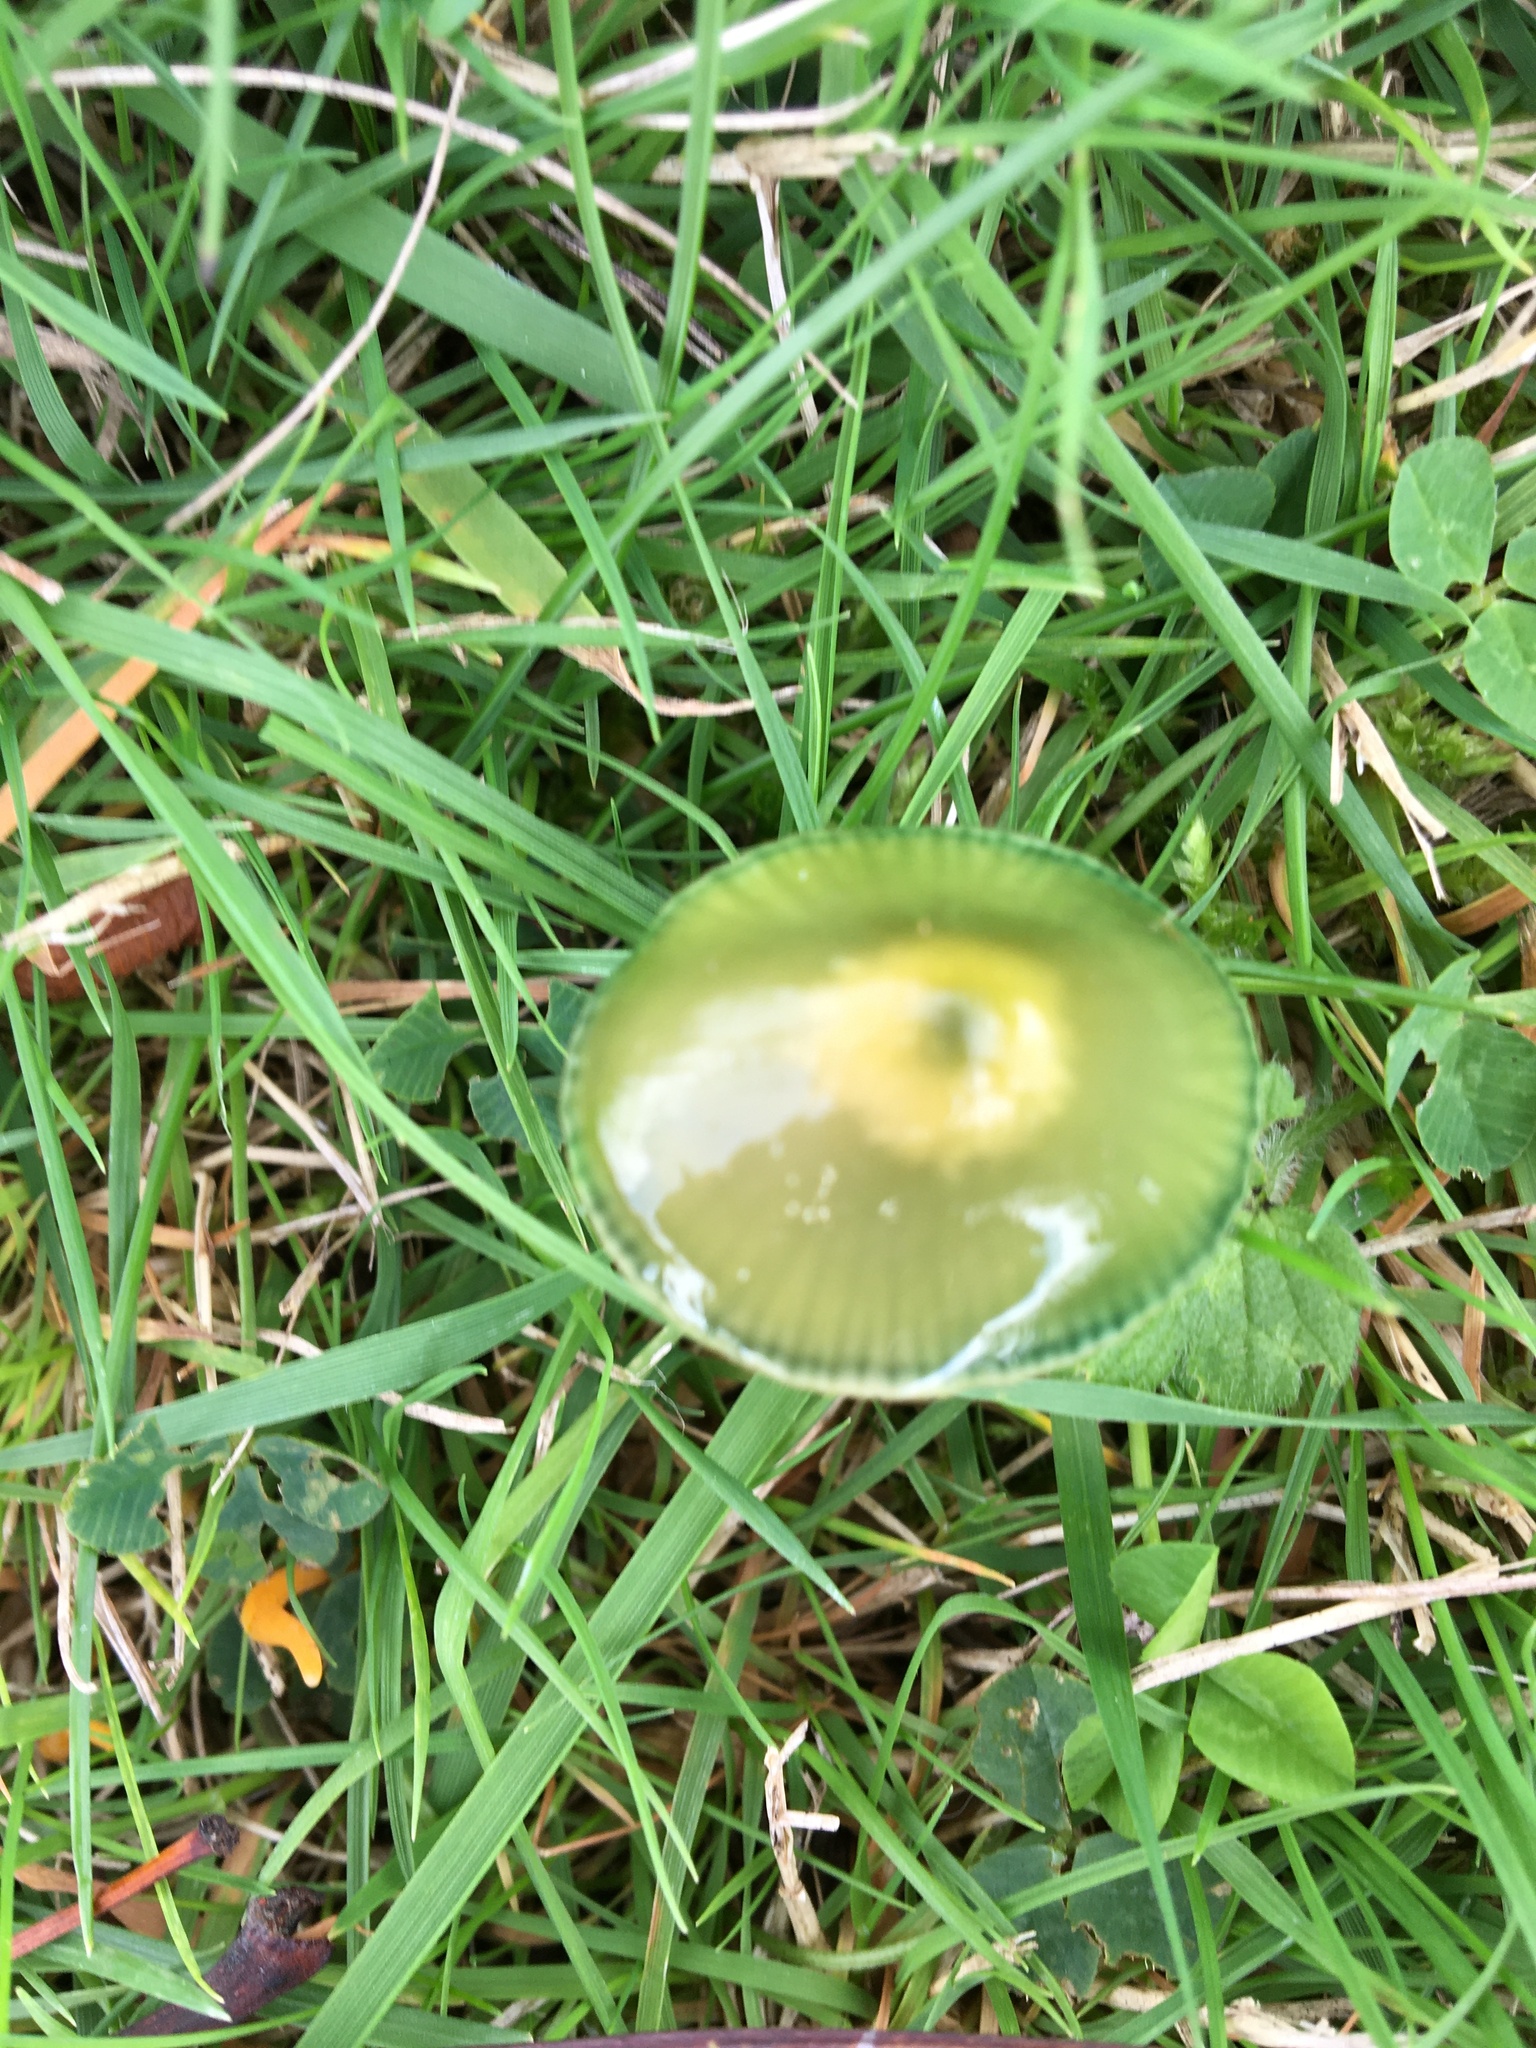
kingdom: Fungi
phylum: Basidiomycota
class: Agaricomycetes
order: Agaricales
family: Hygrophoraceae
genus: Gliophorus
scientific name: Gliophorus psittacinus
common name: Parrot wax-cap
